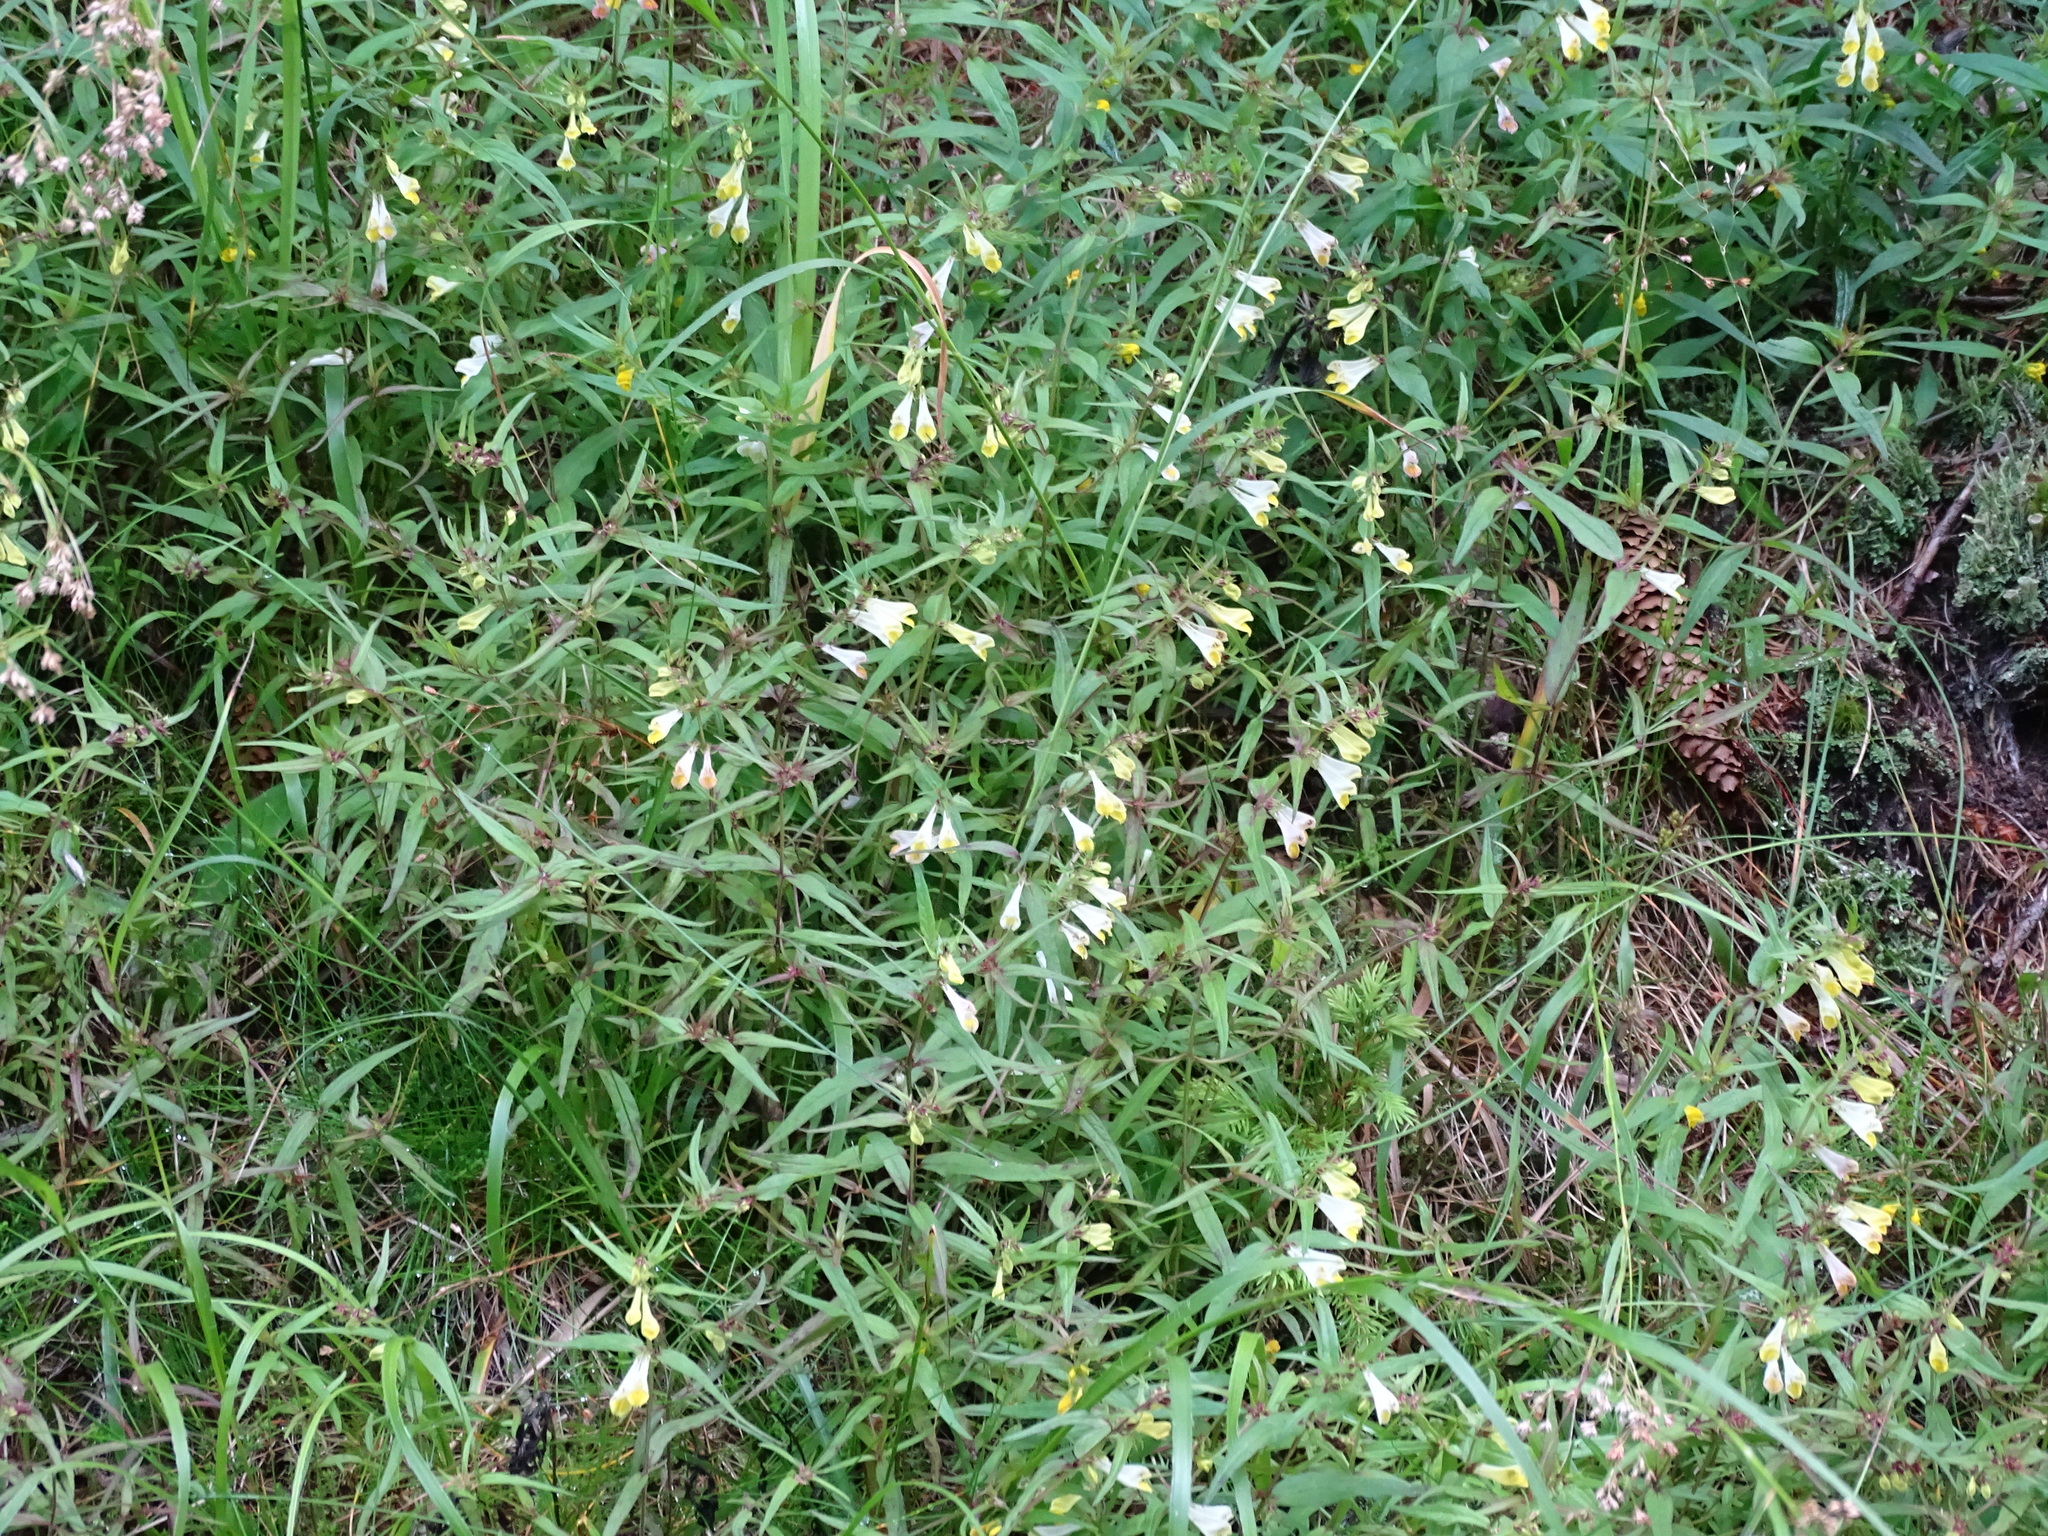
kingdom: Plantae
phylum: Tracheophyta
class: Magnoliopsida
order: Lamiales
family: Orobanchaceae
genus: Melampyrum
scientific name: Melampyrum pratense
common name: Common cow-wheat
